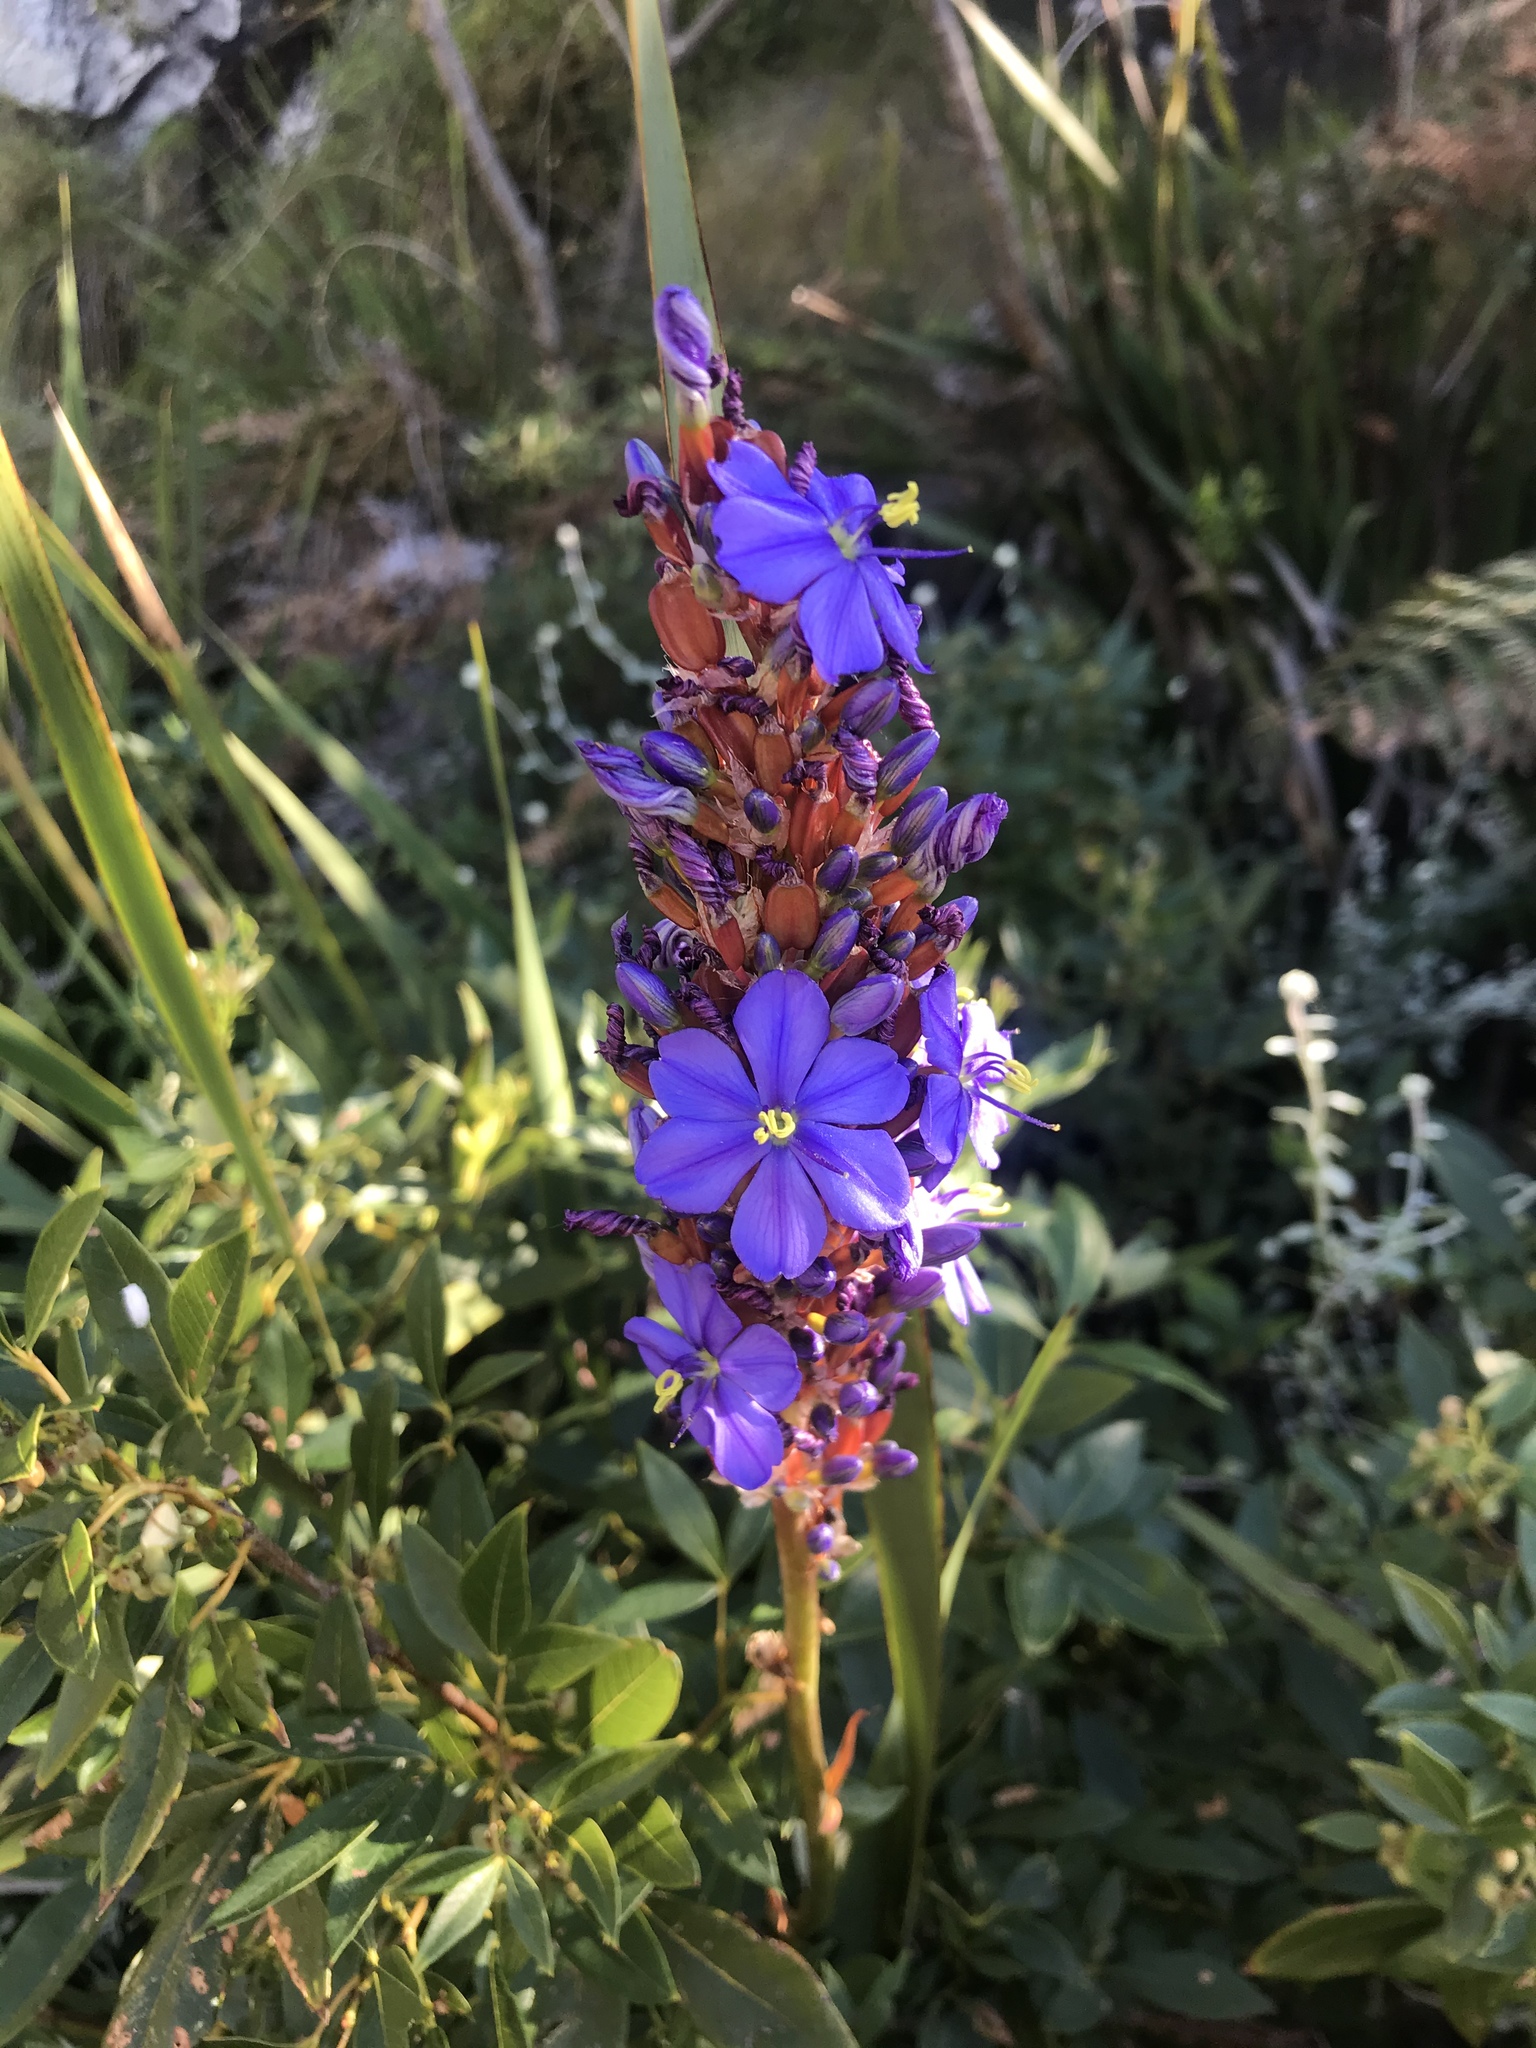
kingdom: Plantae
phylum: Tracheophyta
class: Liliopsida
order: Asparagales
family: Iridaceae
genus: Aristea
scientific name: Aristea capitata
